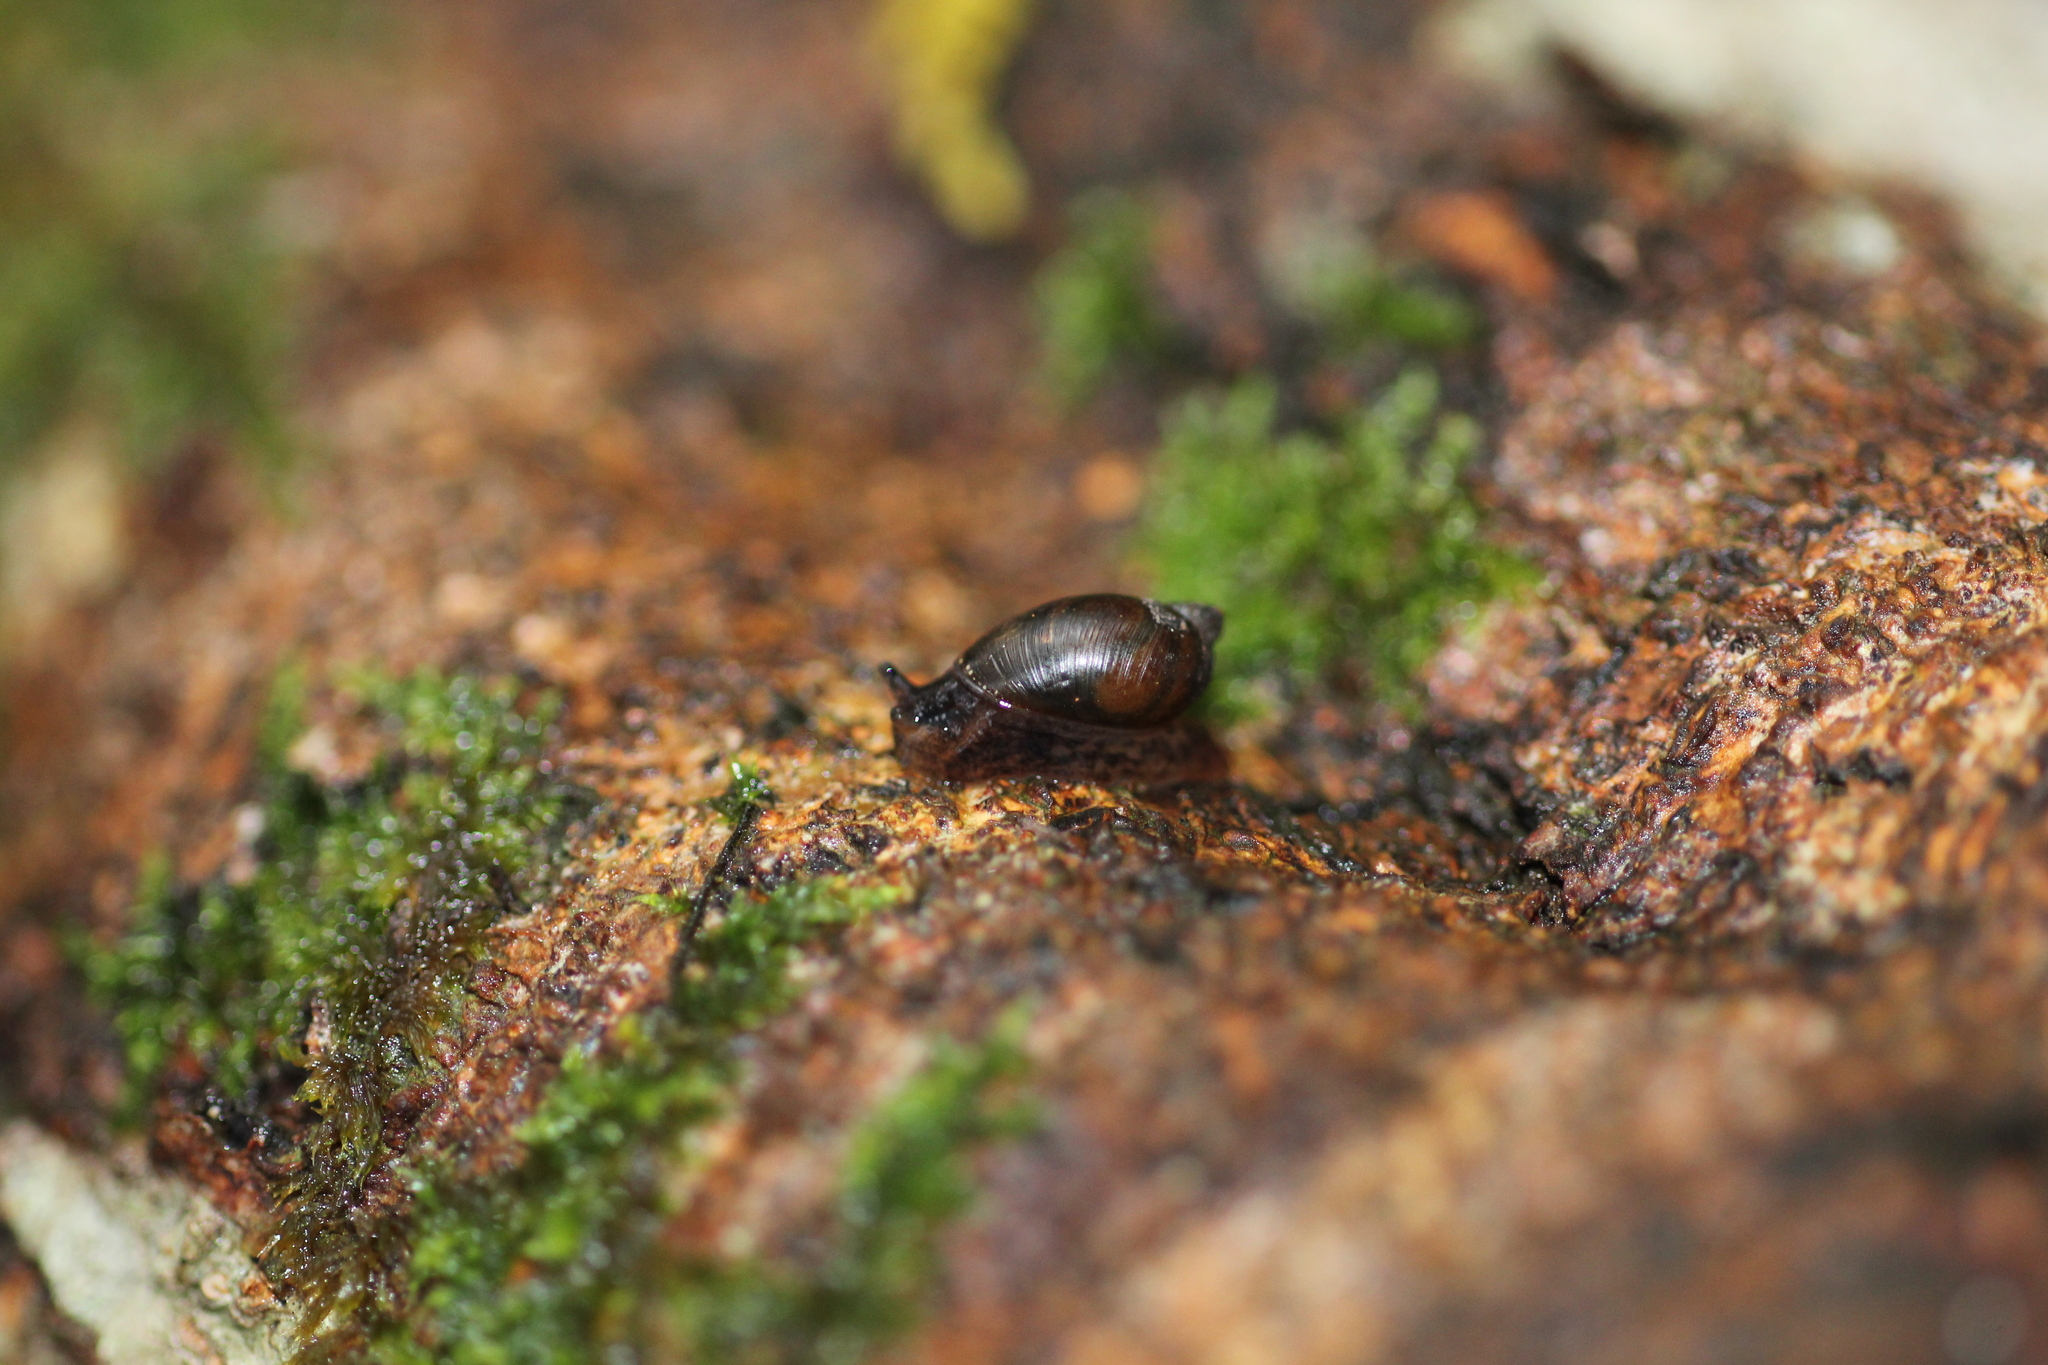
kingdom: Animalia
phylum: Mollusca
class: Gastropoda
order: Stylommatophora
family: Succineidae
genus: Succinea
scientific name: Succinea australis
